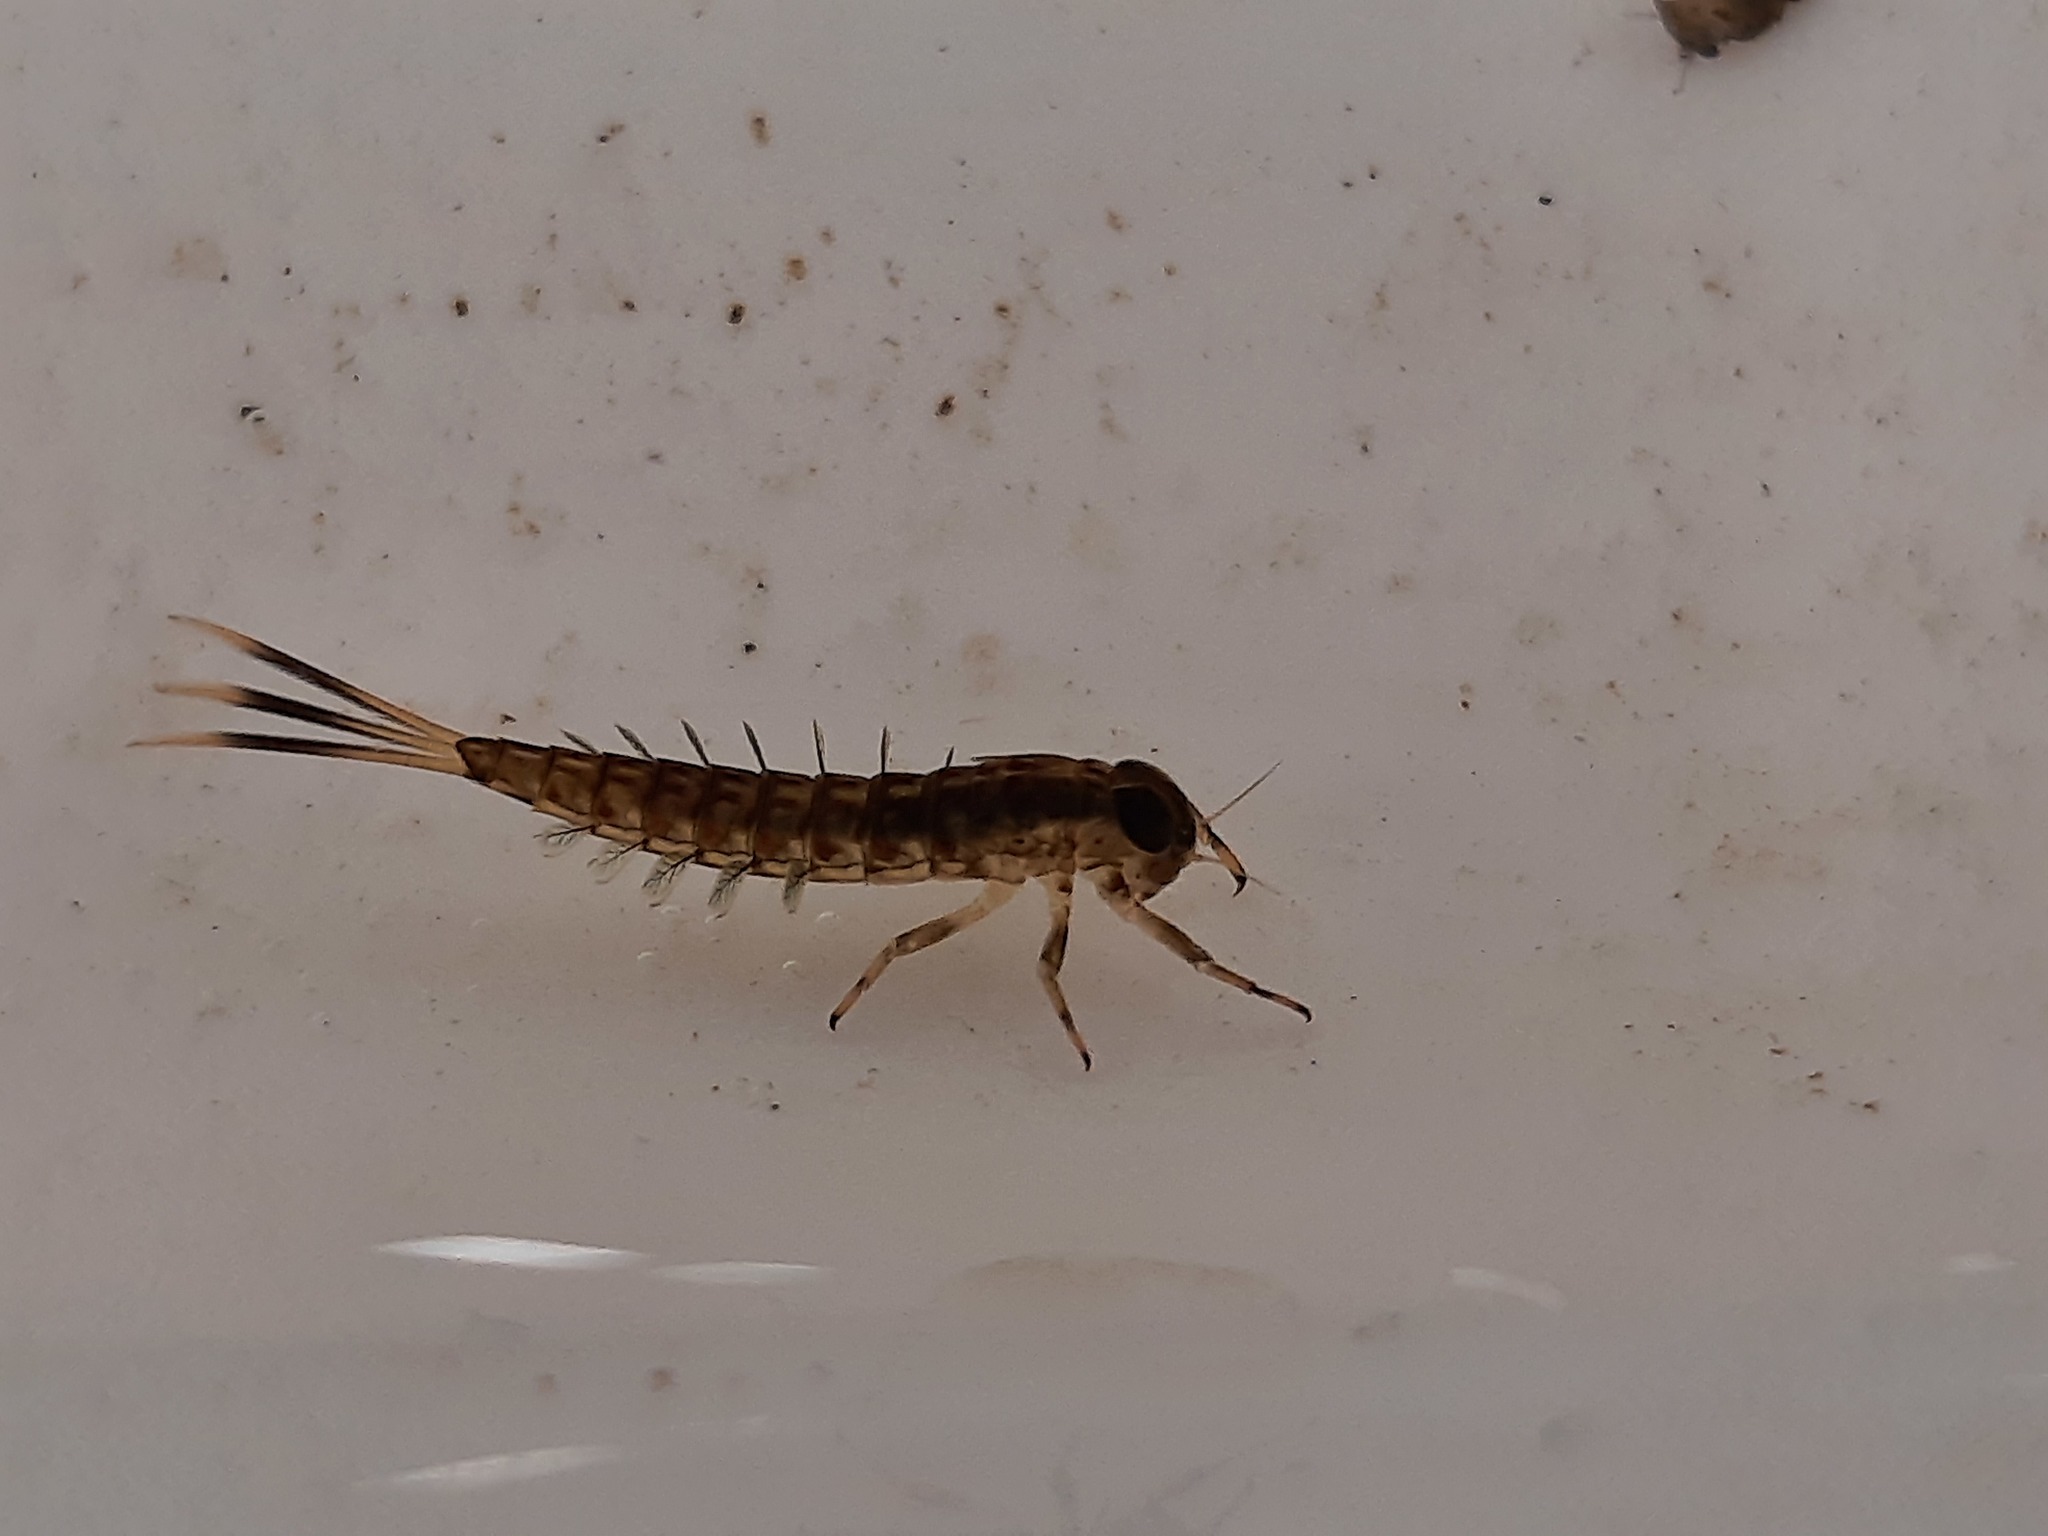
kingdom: Animalia
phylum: Arthropoda
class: Insecta
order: Ephemeroptera
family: Nesameletidae
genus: Nesameletus
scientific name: Nesameletus ornatus
